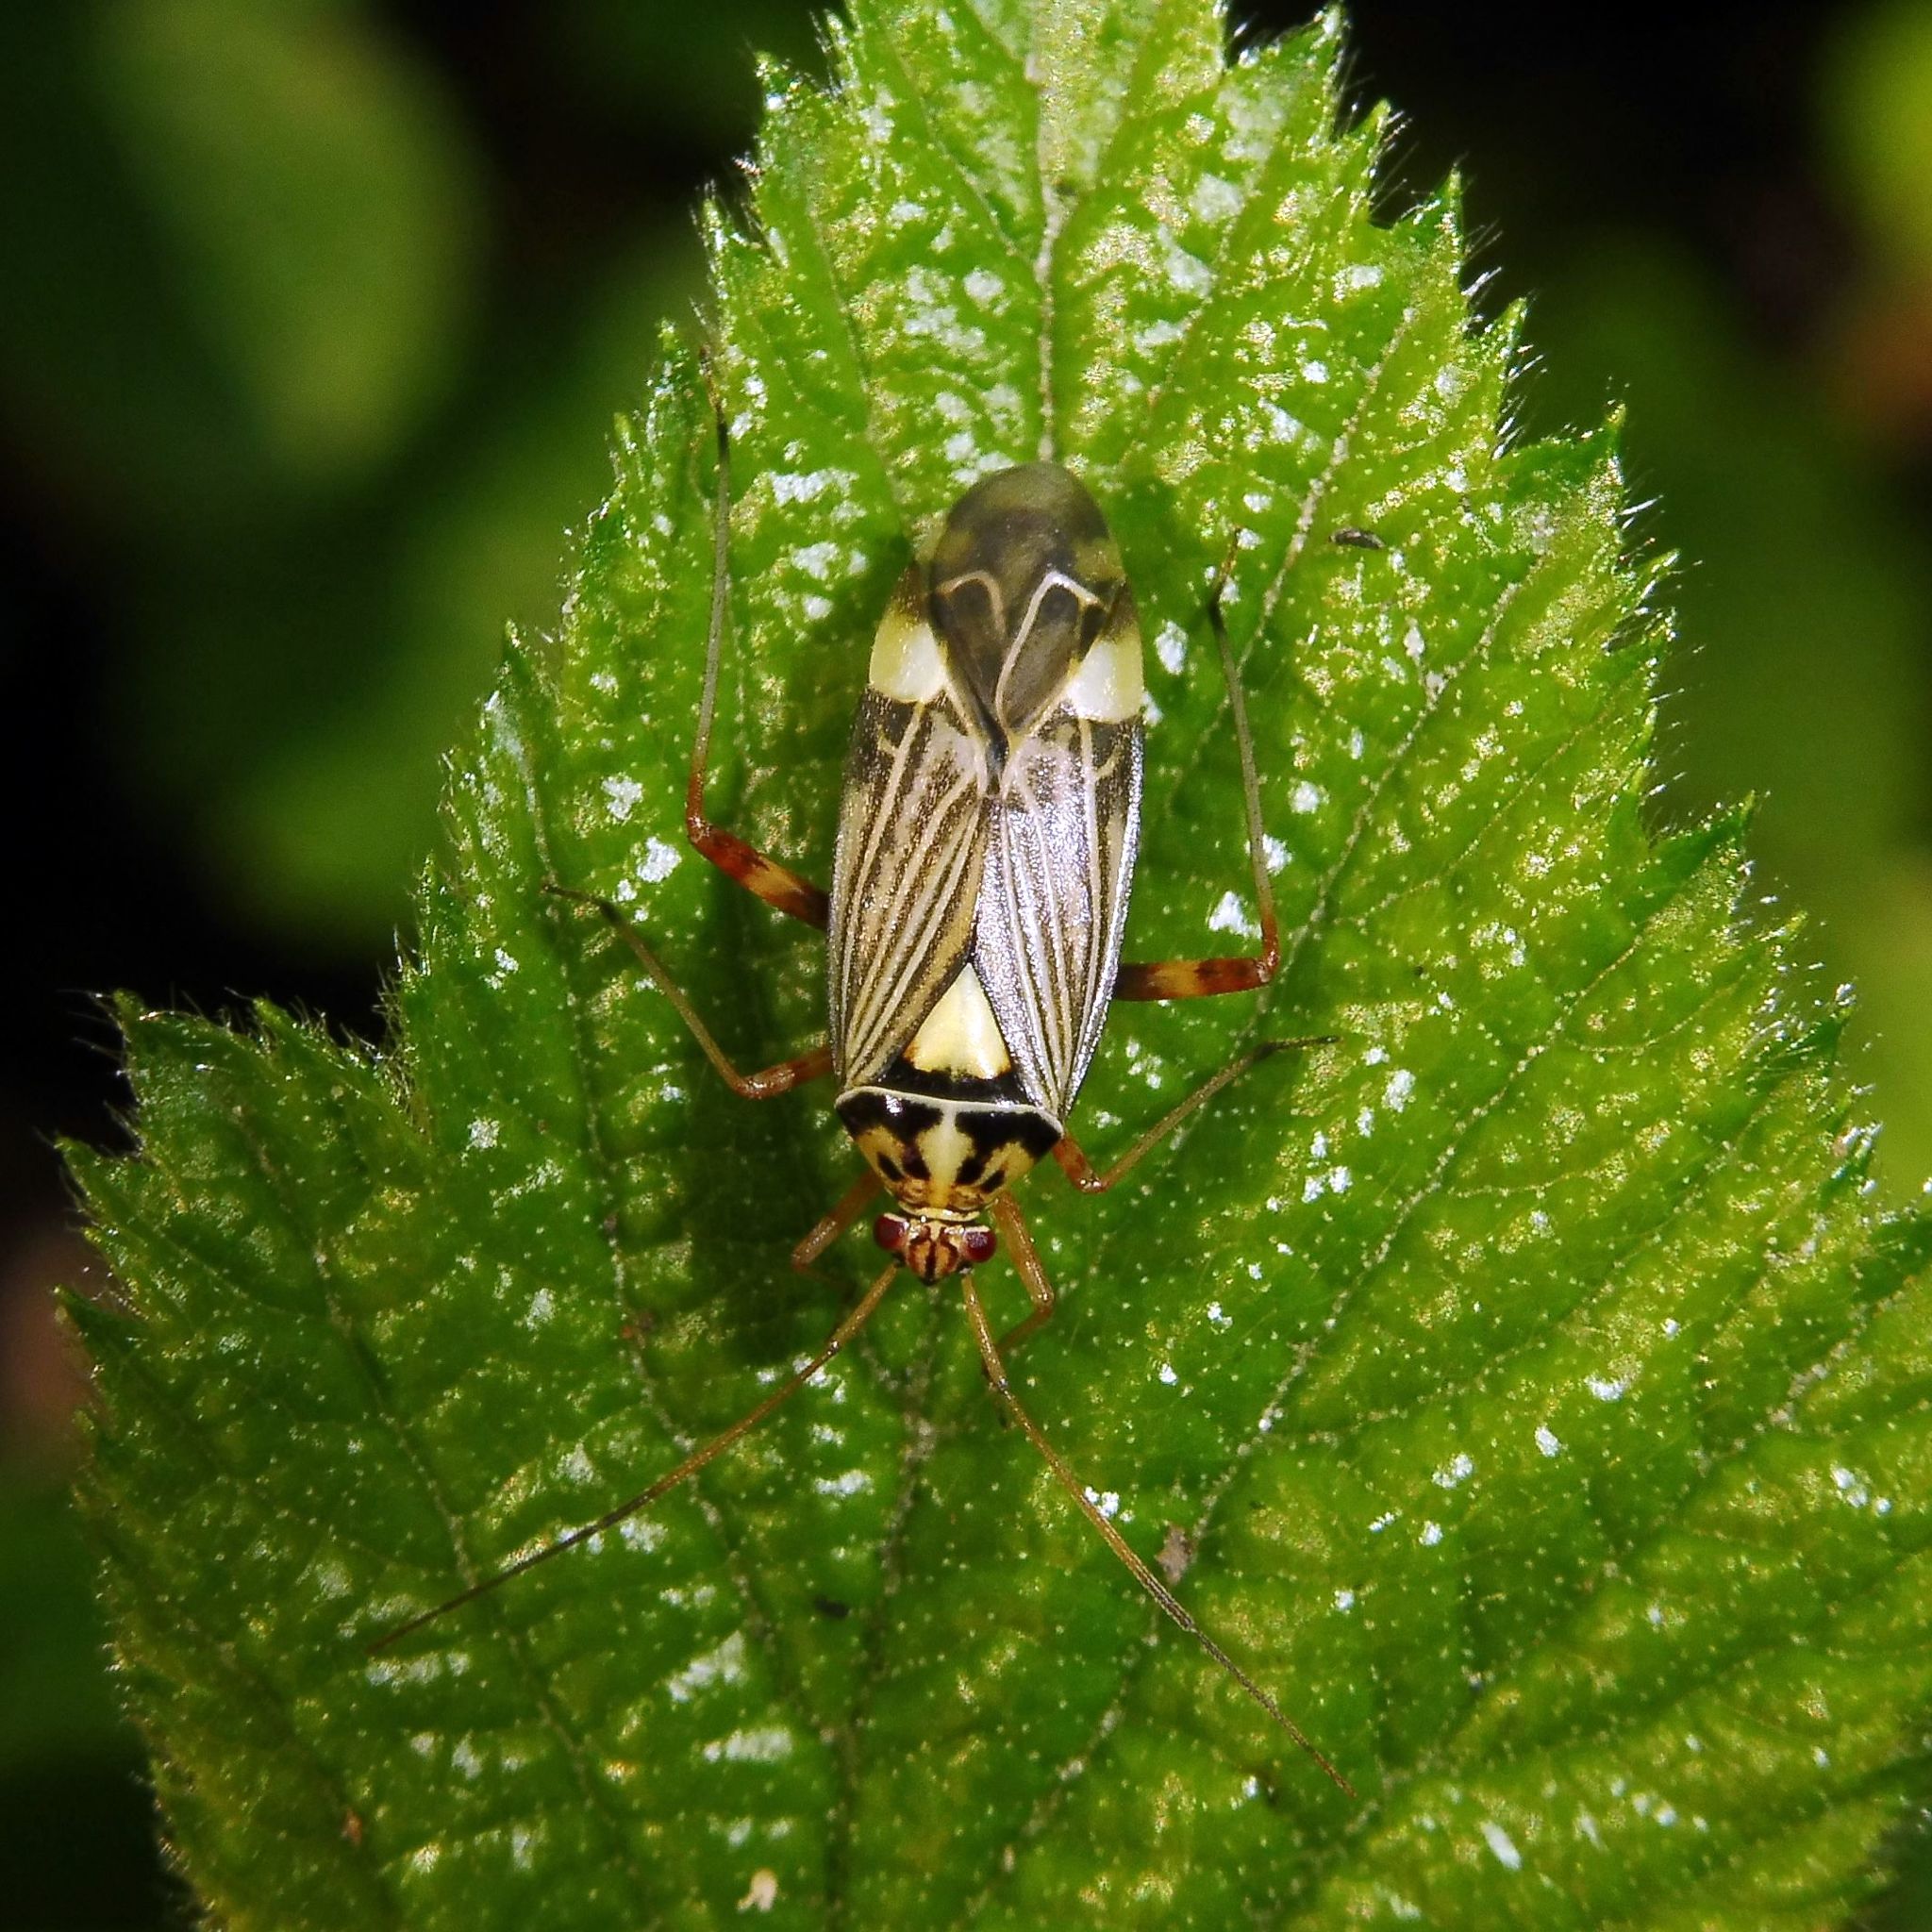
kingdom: Animalia
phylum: Arthropoda
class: Insecta
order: Hemiptera
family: Miridae
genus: Rhabdomiris
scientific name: Rhabdomiris striatellus
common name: Plant bug
